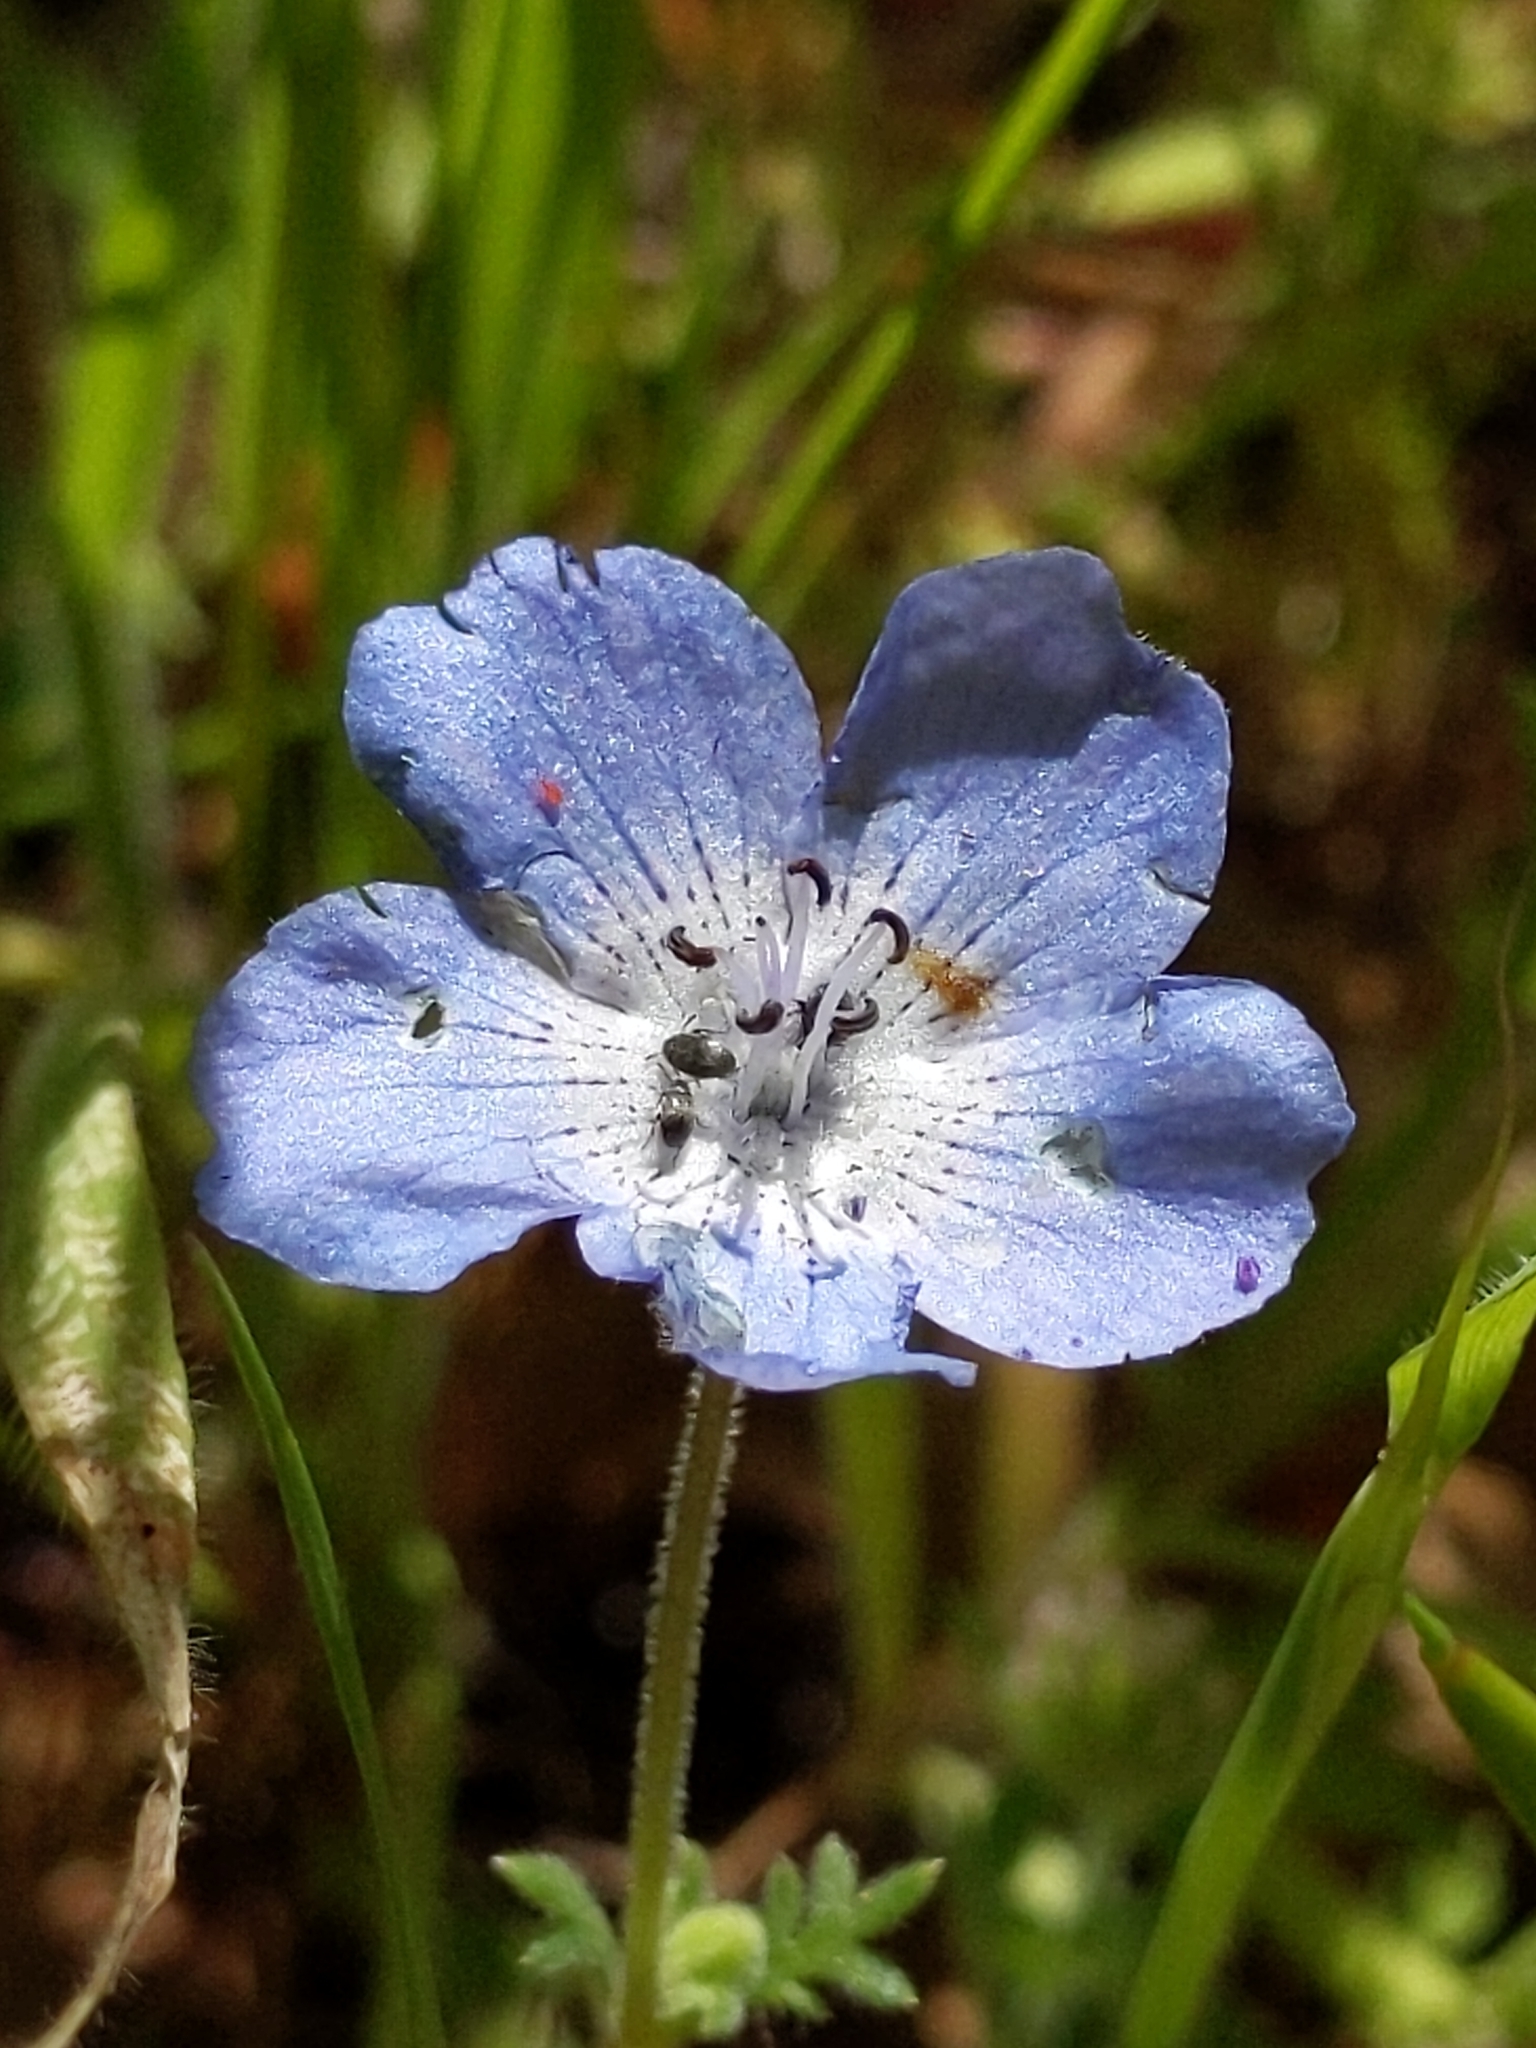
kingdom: Plantae
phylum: Tracheophyta
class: Magnoliopsida
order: Boraginales
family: Hydrophyllaceae
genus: Nemophila
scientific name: Nemophila menziesii
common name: Baby's-blue-eyes
